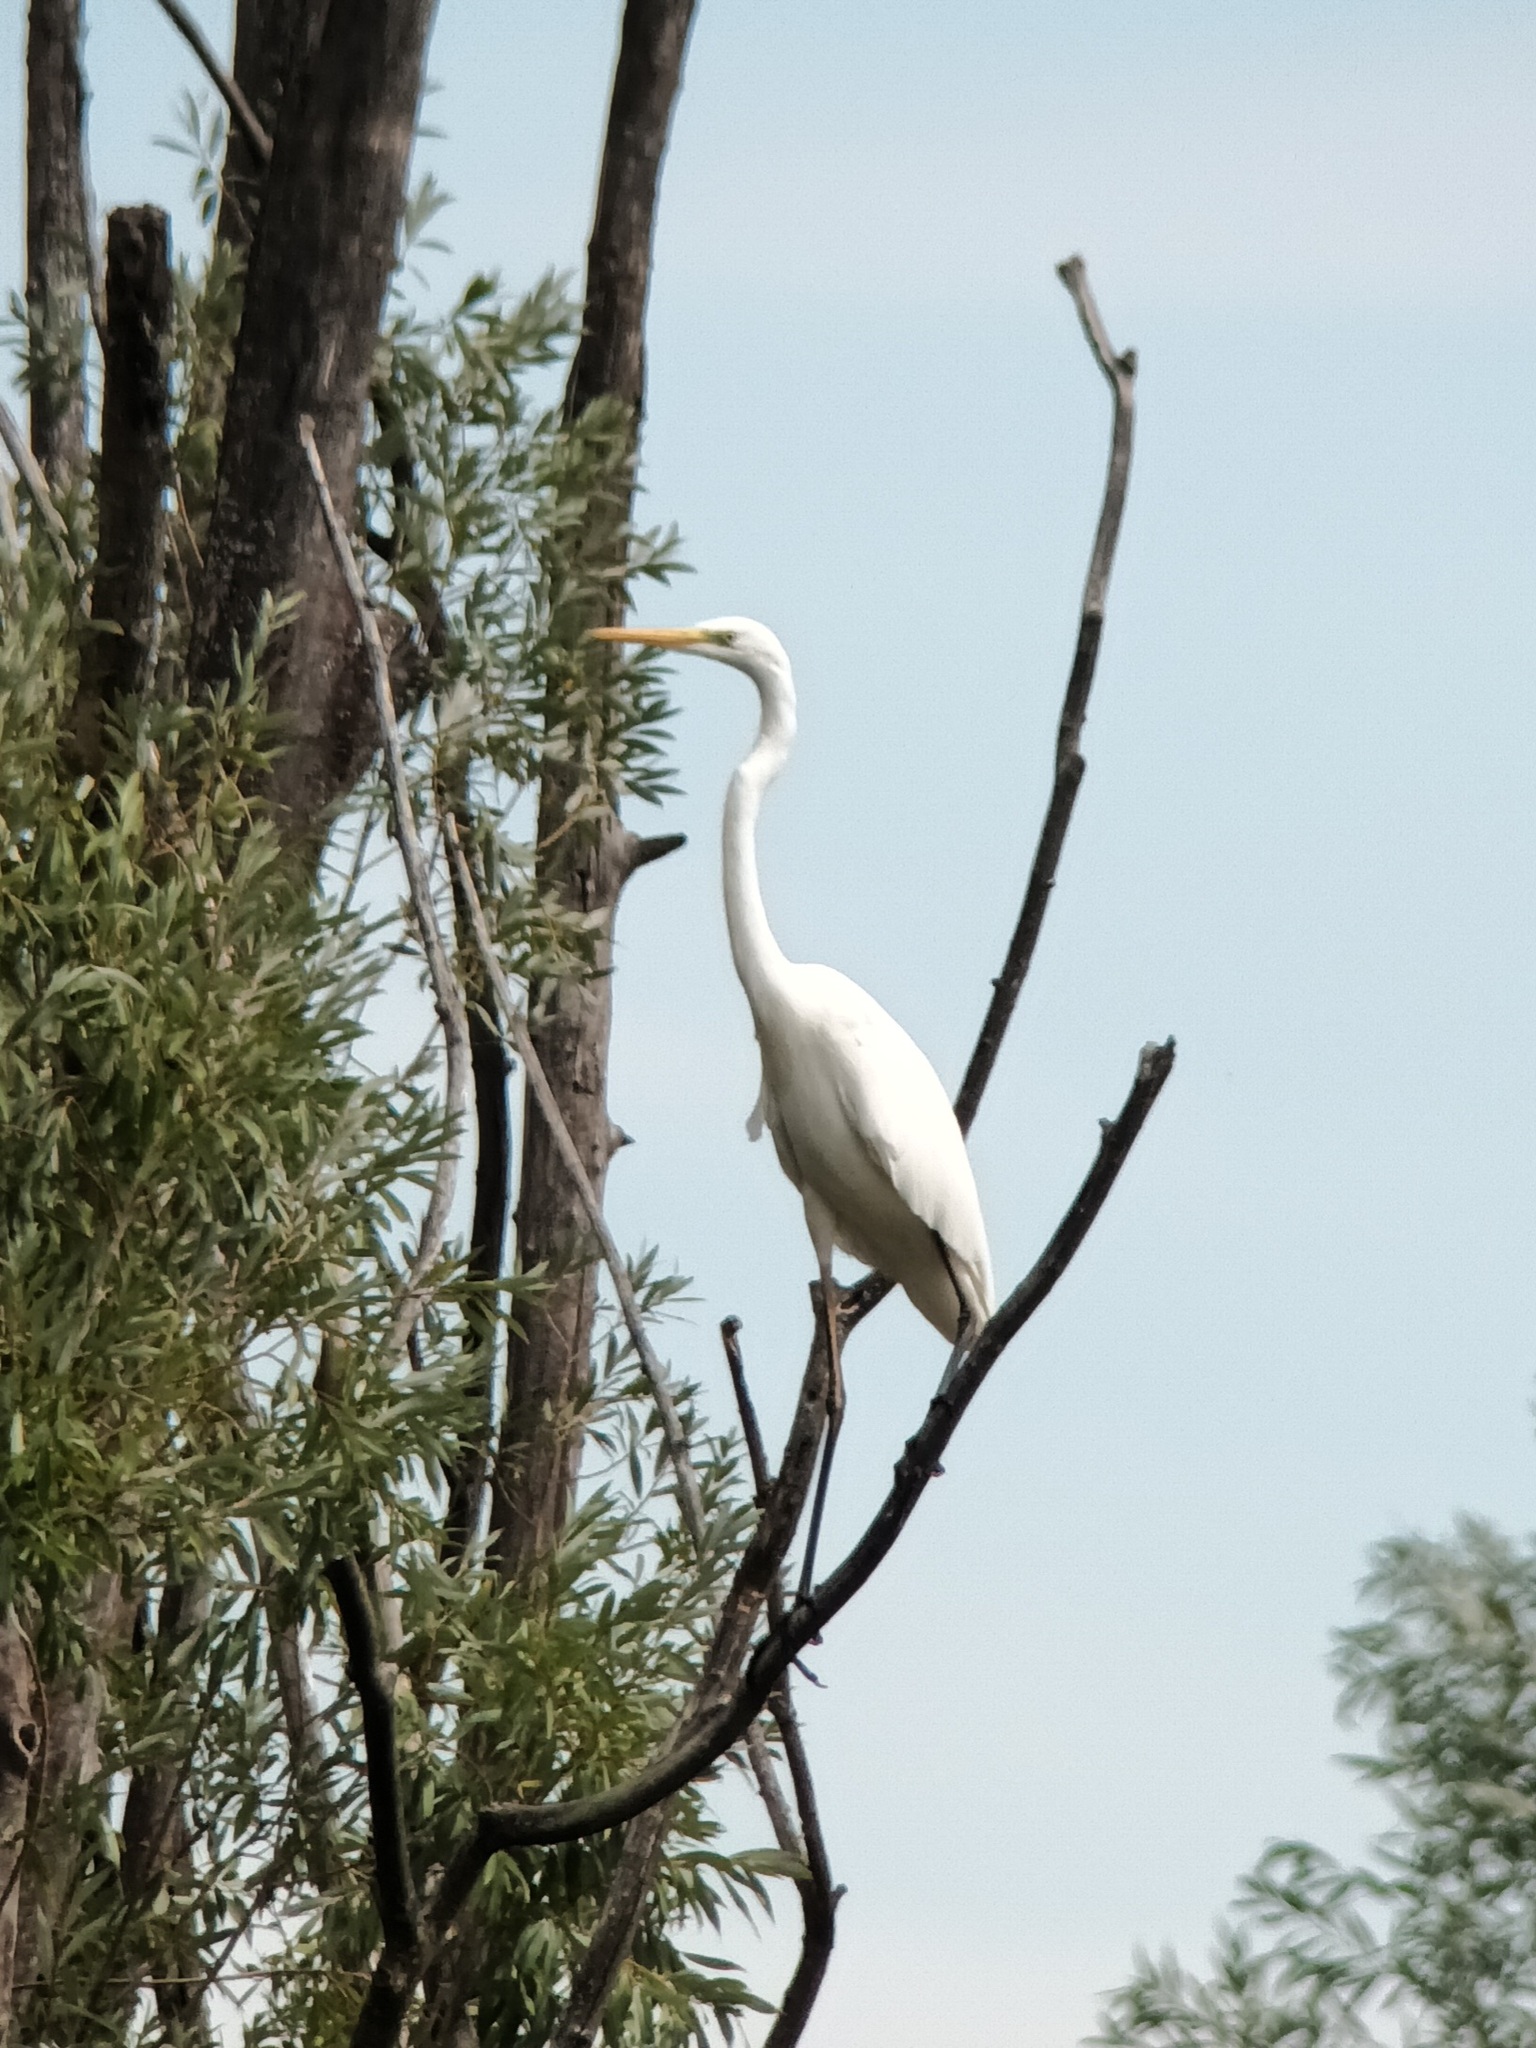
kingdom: Animalia
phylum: Chordata
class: Aves
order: Pelecaniformes
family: Ardeidae
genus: Ardea
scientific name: Ardea alba
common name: Great egret
